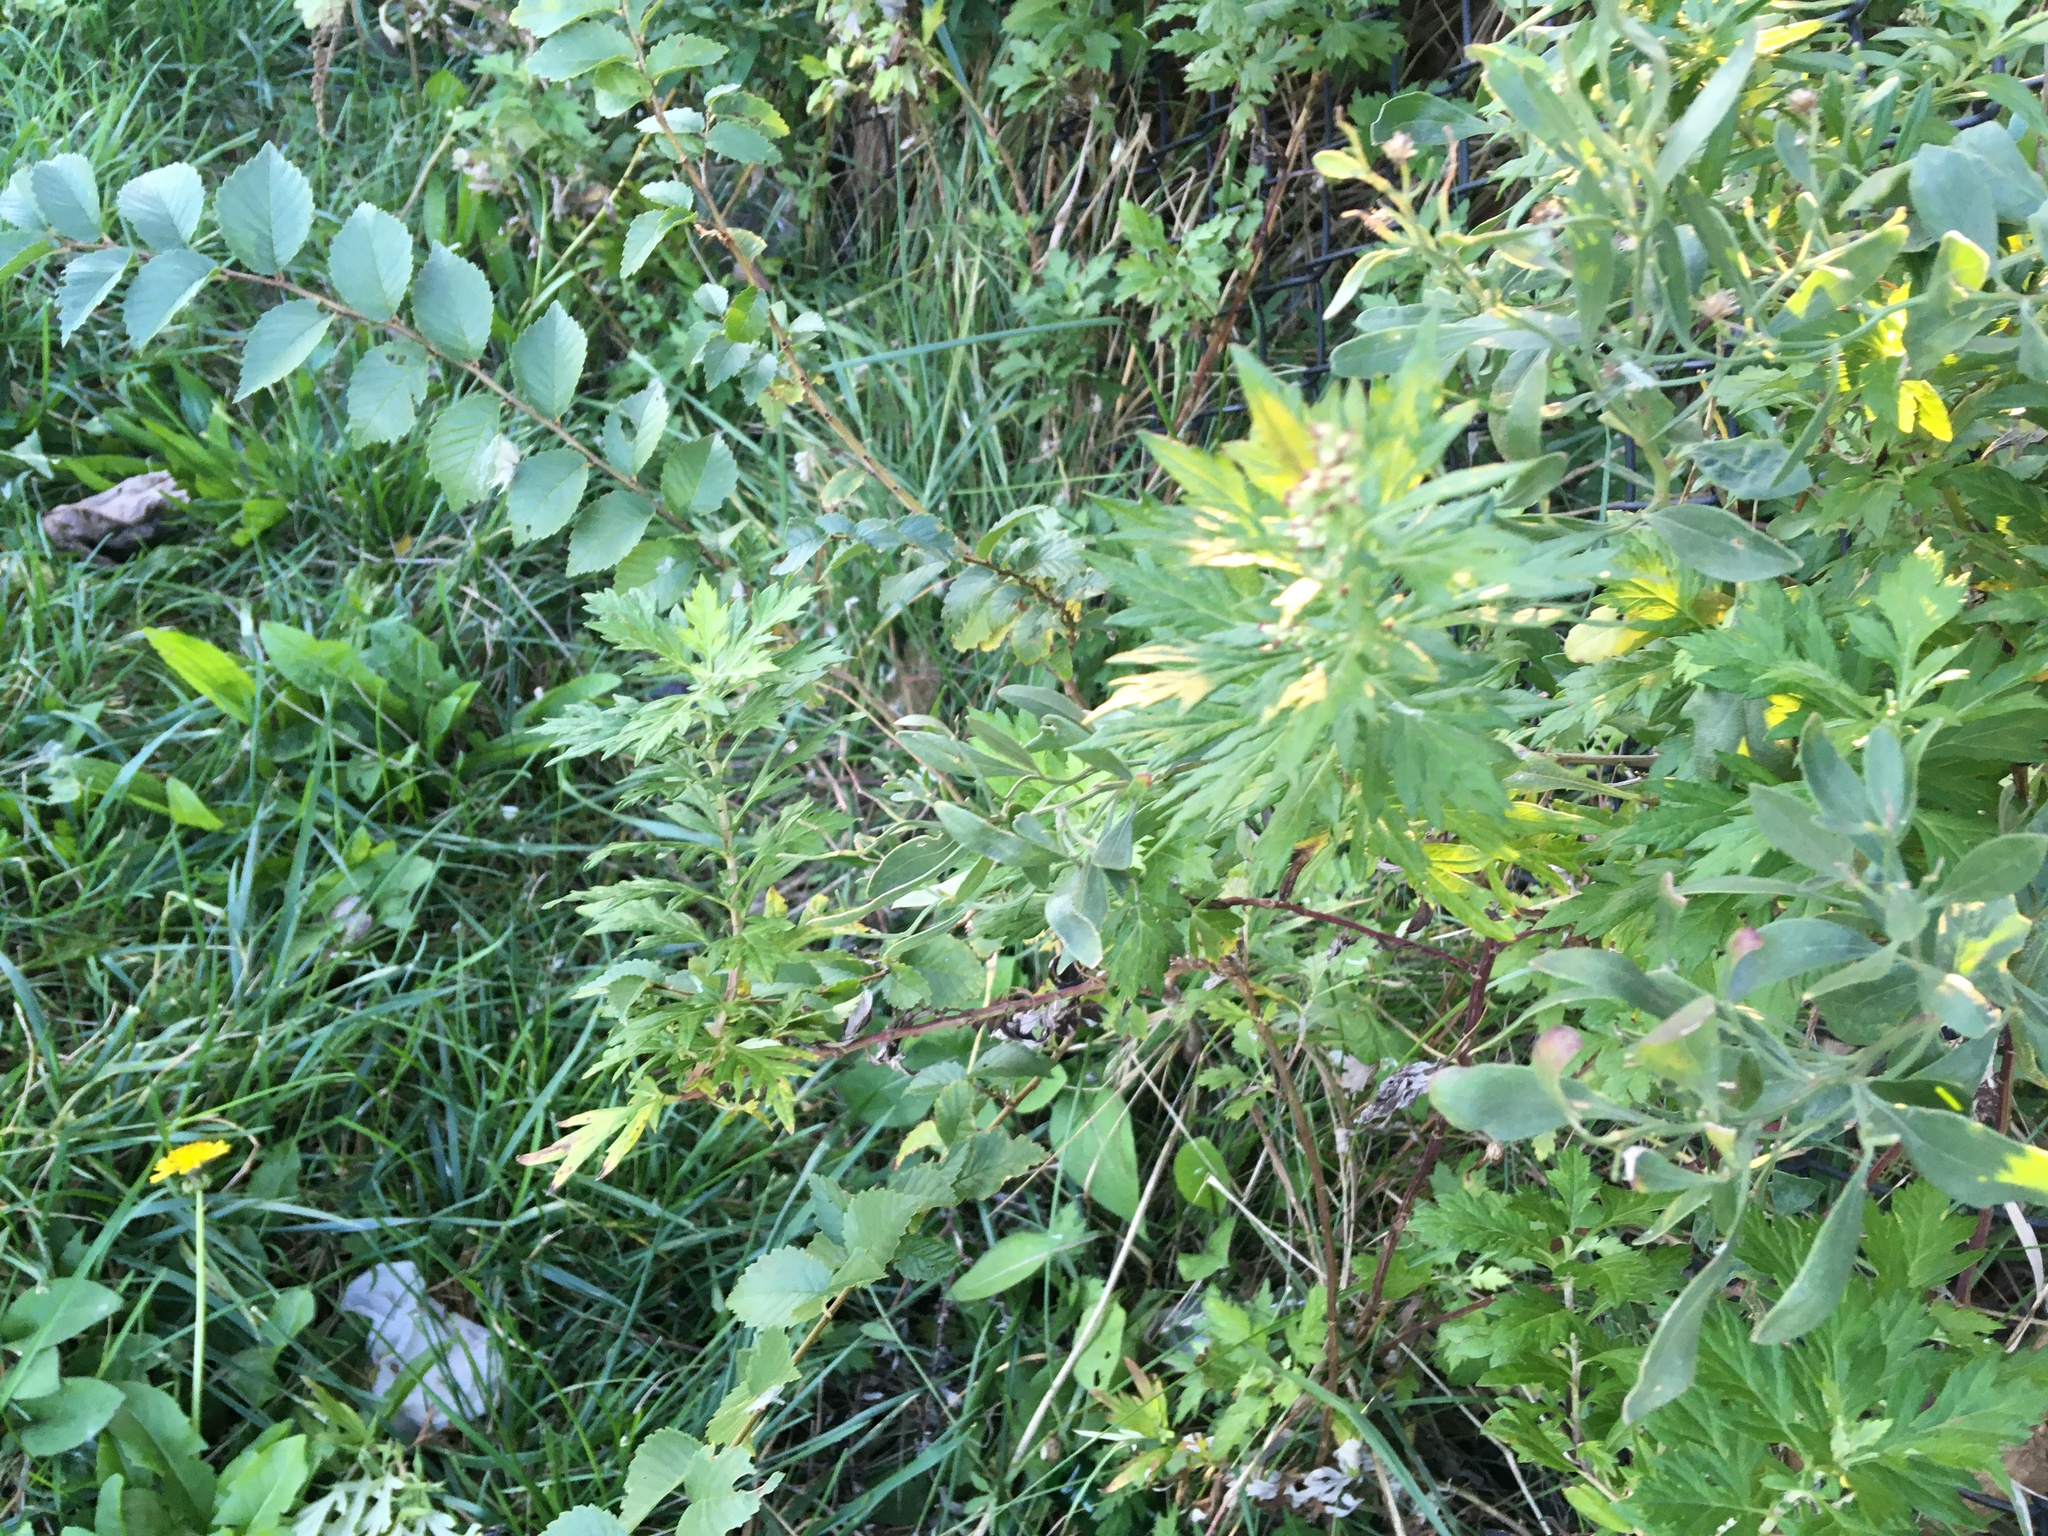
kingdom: Plantae
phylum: Tracheophyta
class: Magnoliopsida
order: Asterales
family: Asteraceae
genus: Artemisia
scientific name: Artemisia vulgaris
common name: Mugwort
